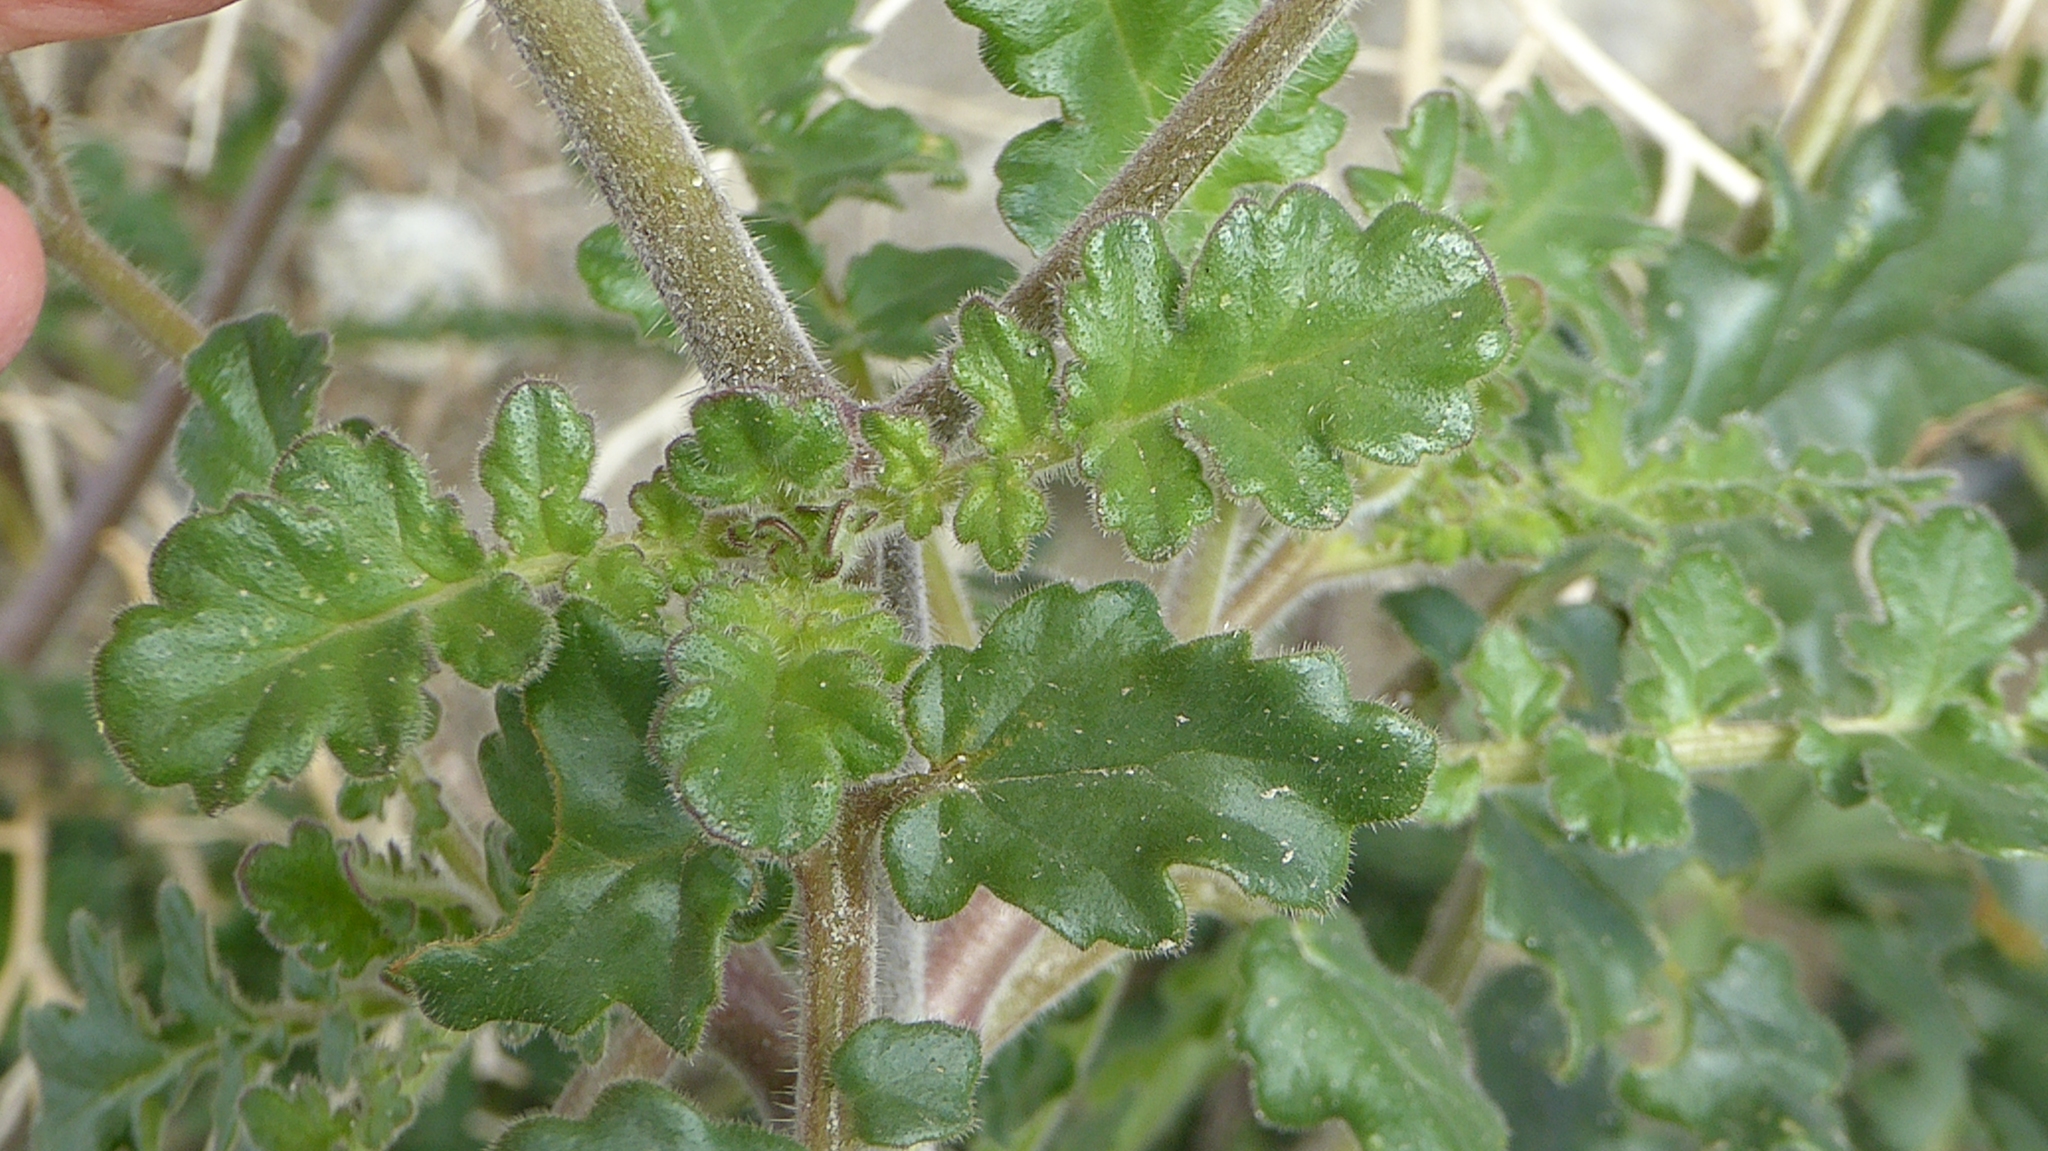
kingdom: Plantae
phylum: Tracheophyta
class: Magnoliopsida
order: Boraginales
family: Hydrophyllaceae
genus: Phacelia
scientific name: Phacelia crenulata
